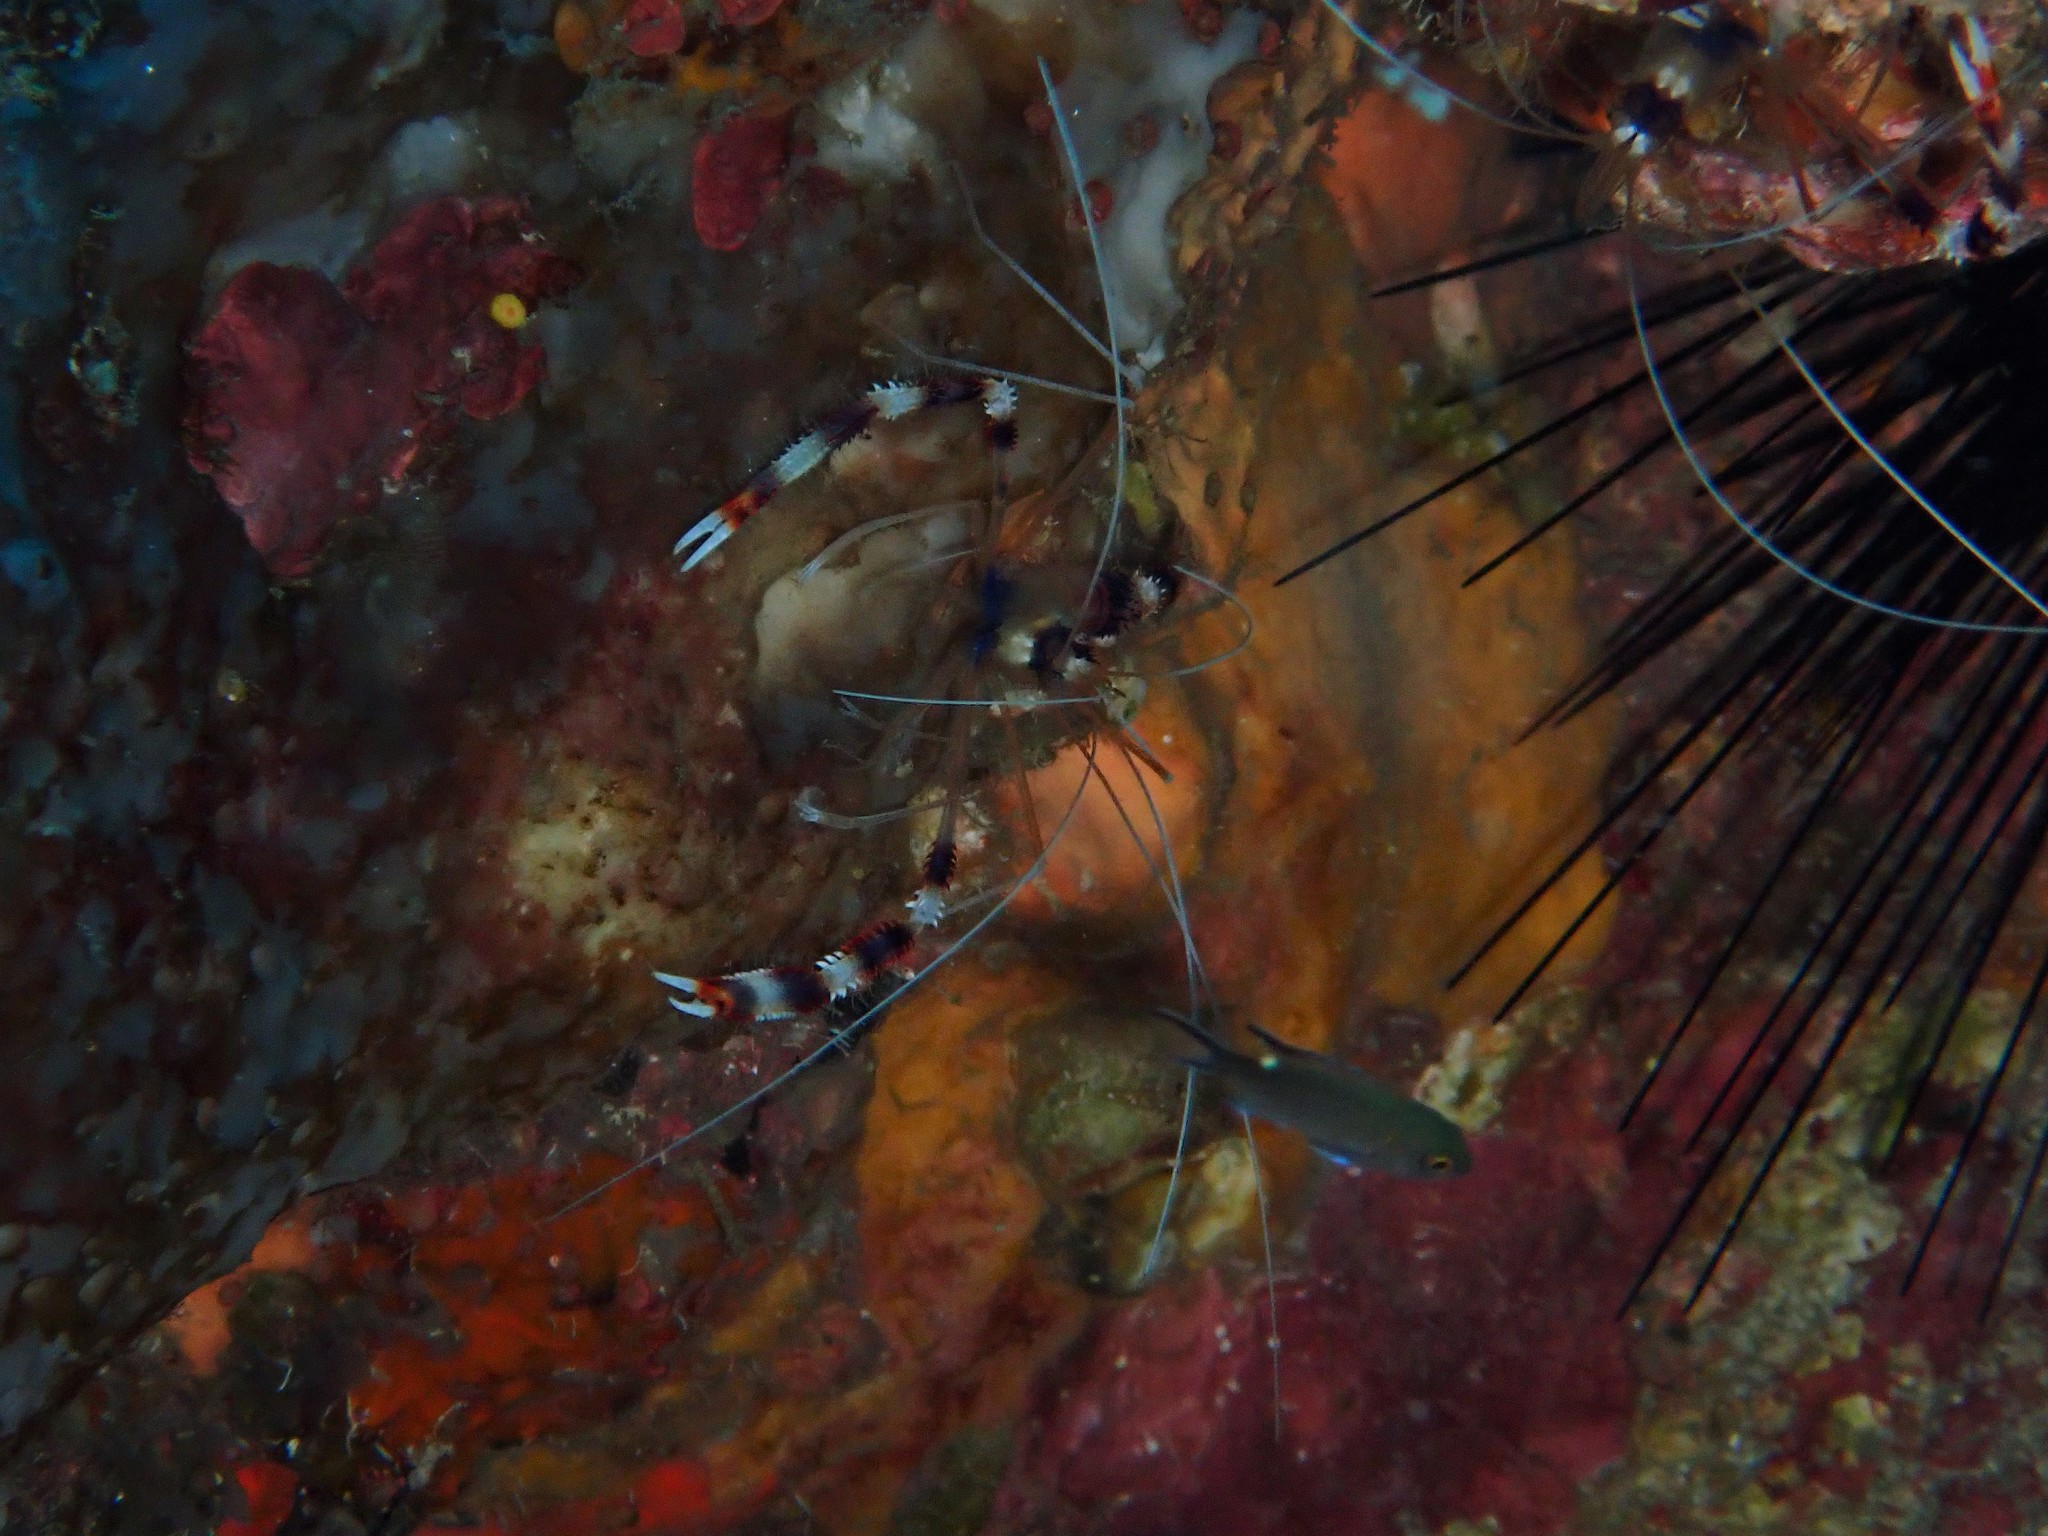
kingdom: Animalia
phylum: Arthropoda
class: Malacostraca
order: Decapoda
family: Stenopodidae
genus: Stenopus
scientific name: Stenopus hispidus
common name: Banded coral shrimp
